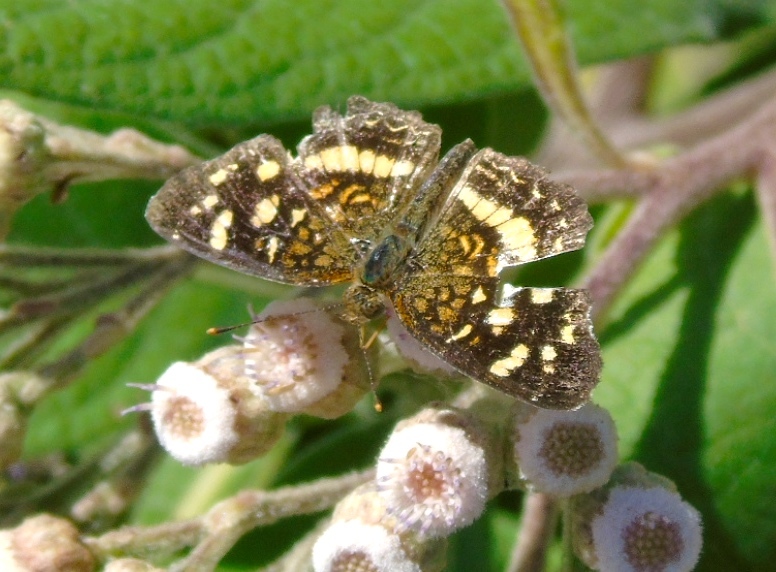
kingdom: Animalia
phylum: Arthropoda
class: Insecta
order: Lepidoptera
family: Nymphalidae
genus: Anthanassa
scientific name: Anthanassa tulcis
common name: Pale-banded crescent
